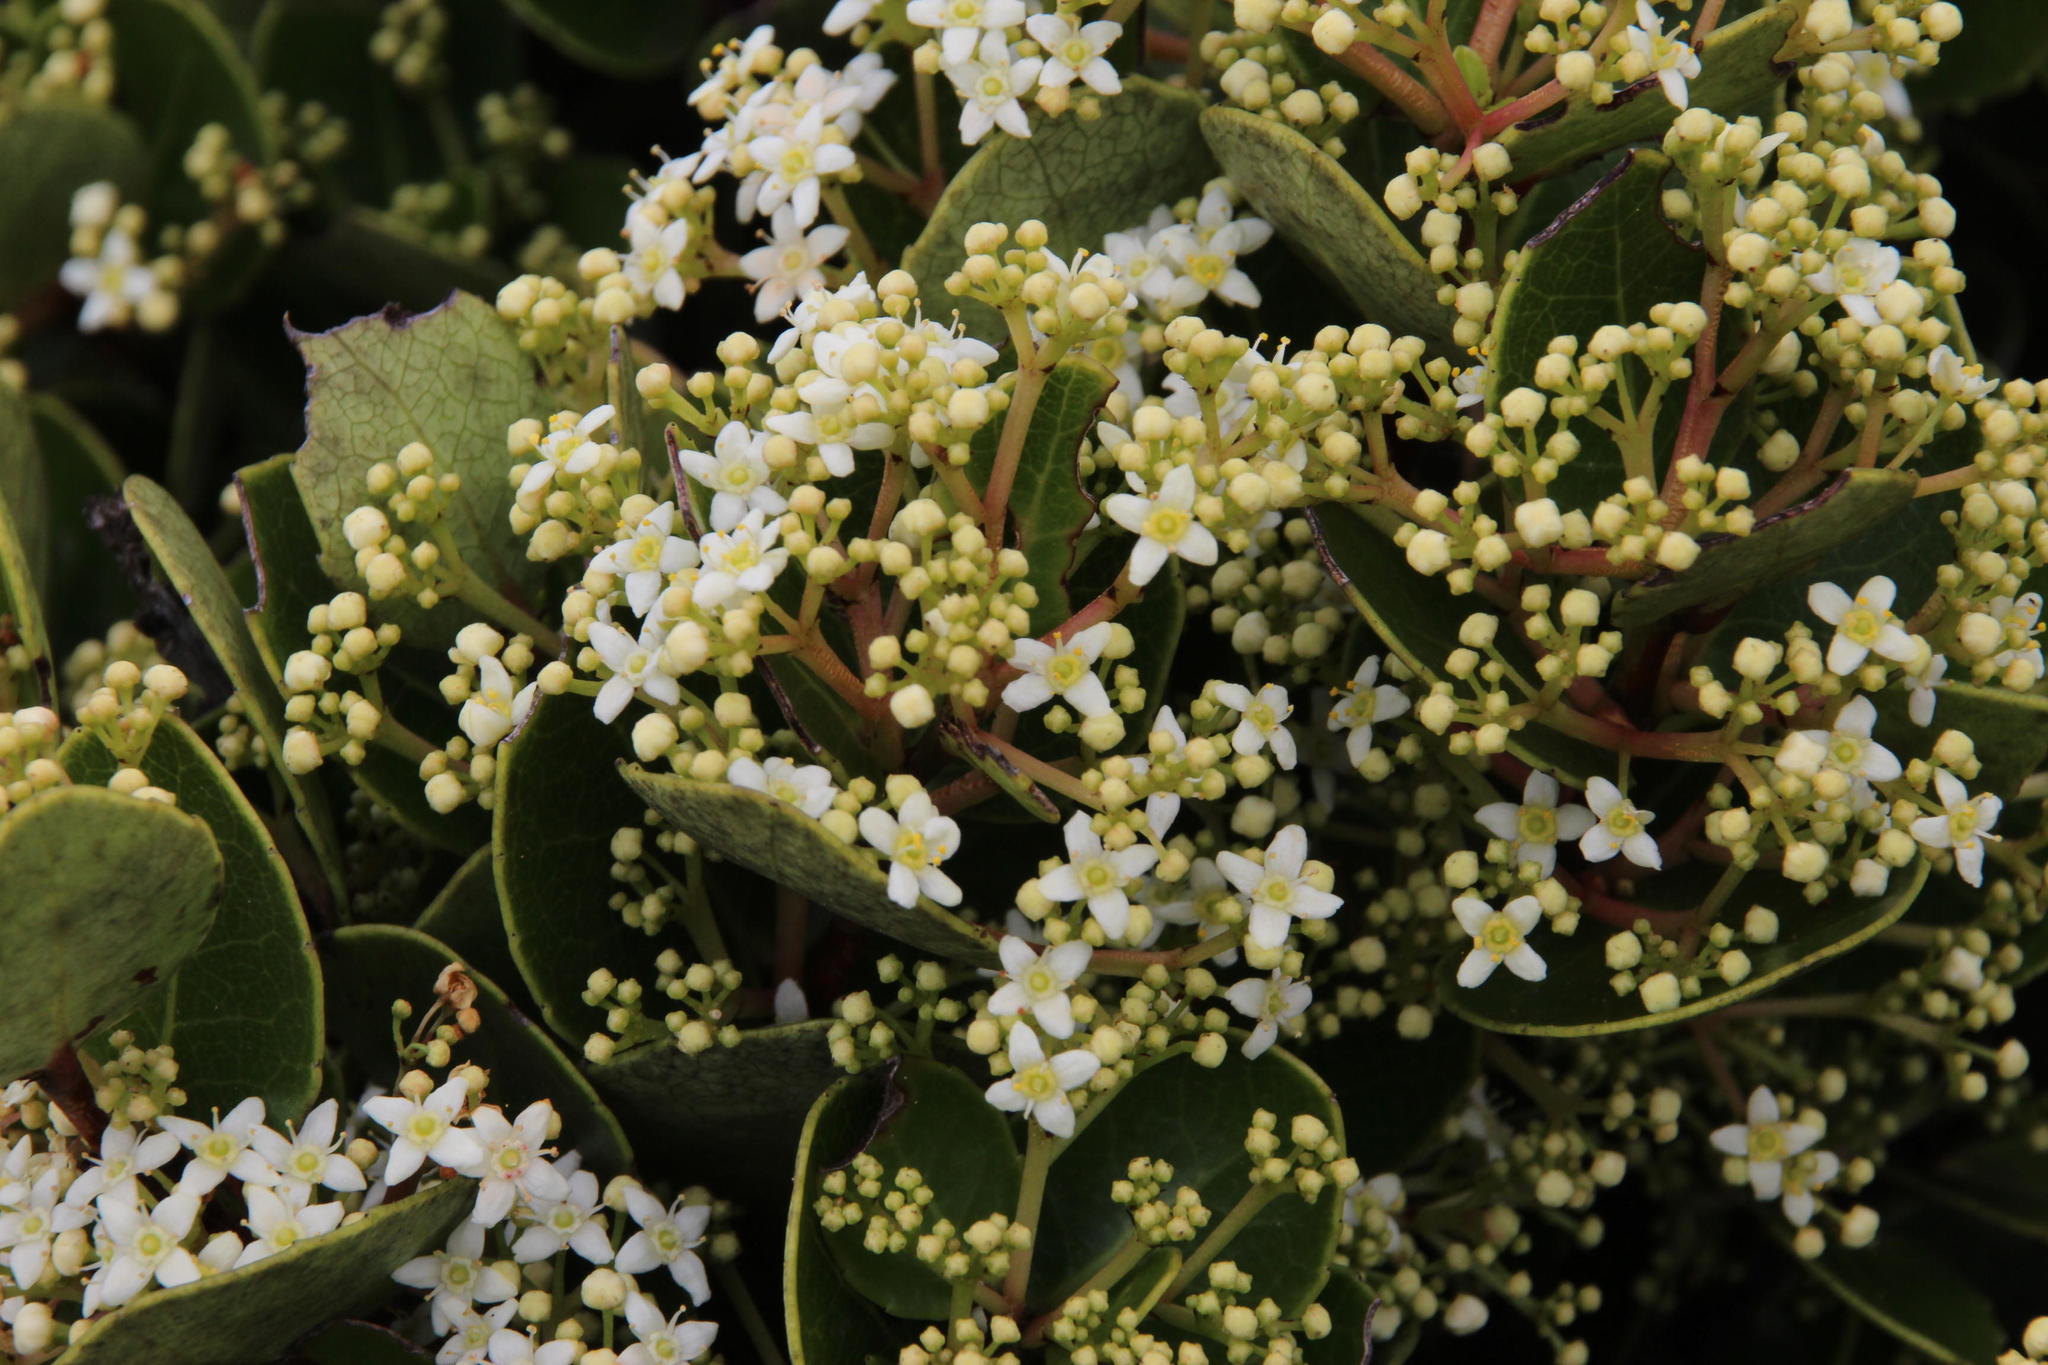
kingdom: Plantae
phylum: Tracheophyta
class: Magnoliopsida
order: Celastrales
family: Celastraceae
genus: Cassine
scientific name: Cassine peragua
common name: Cape saffron
